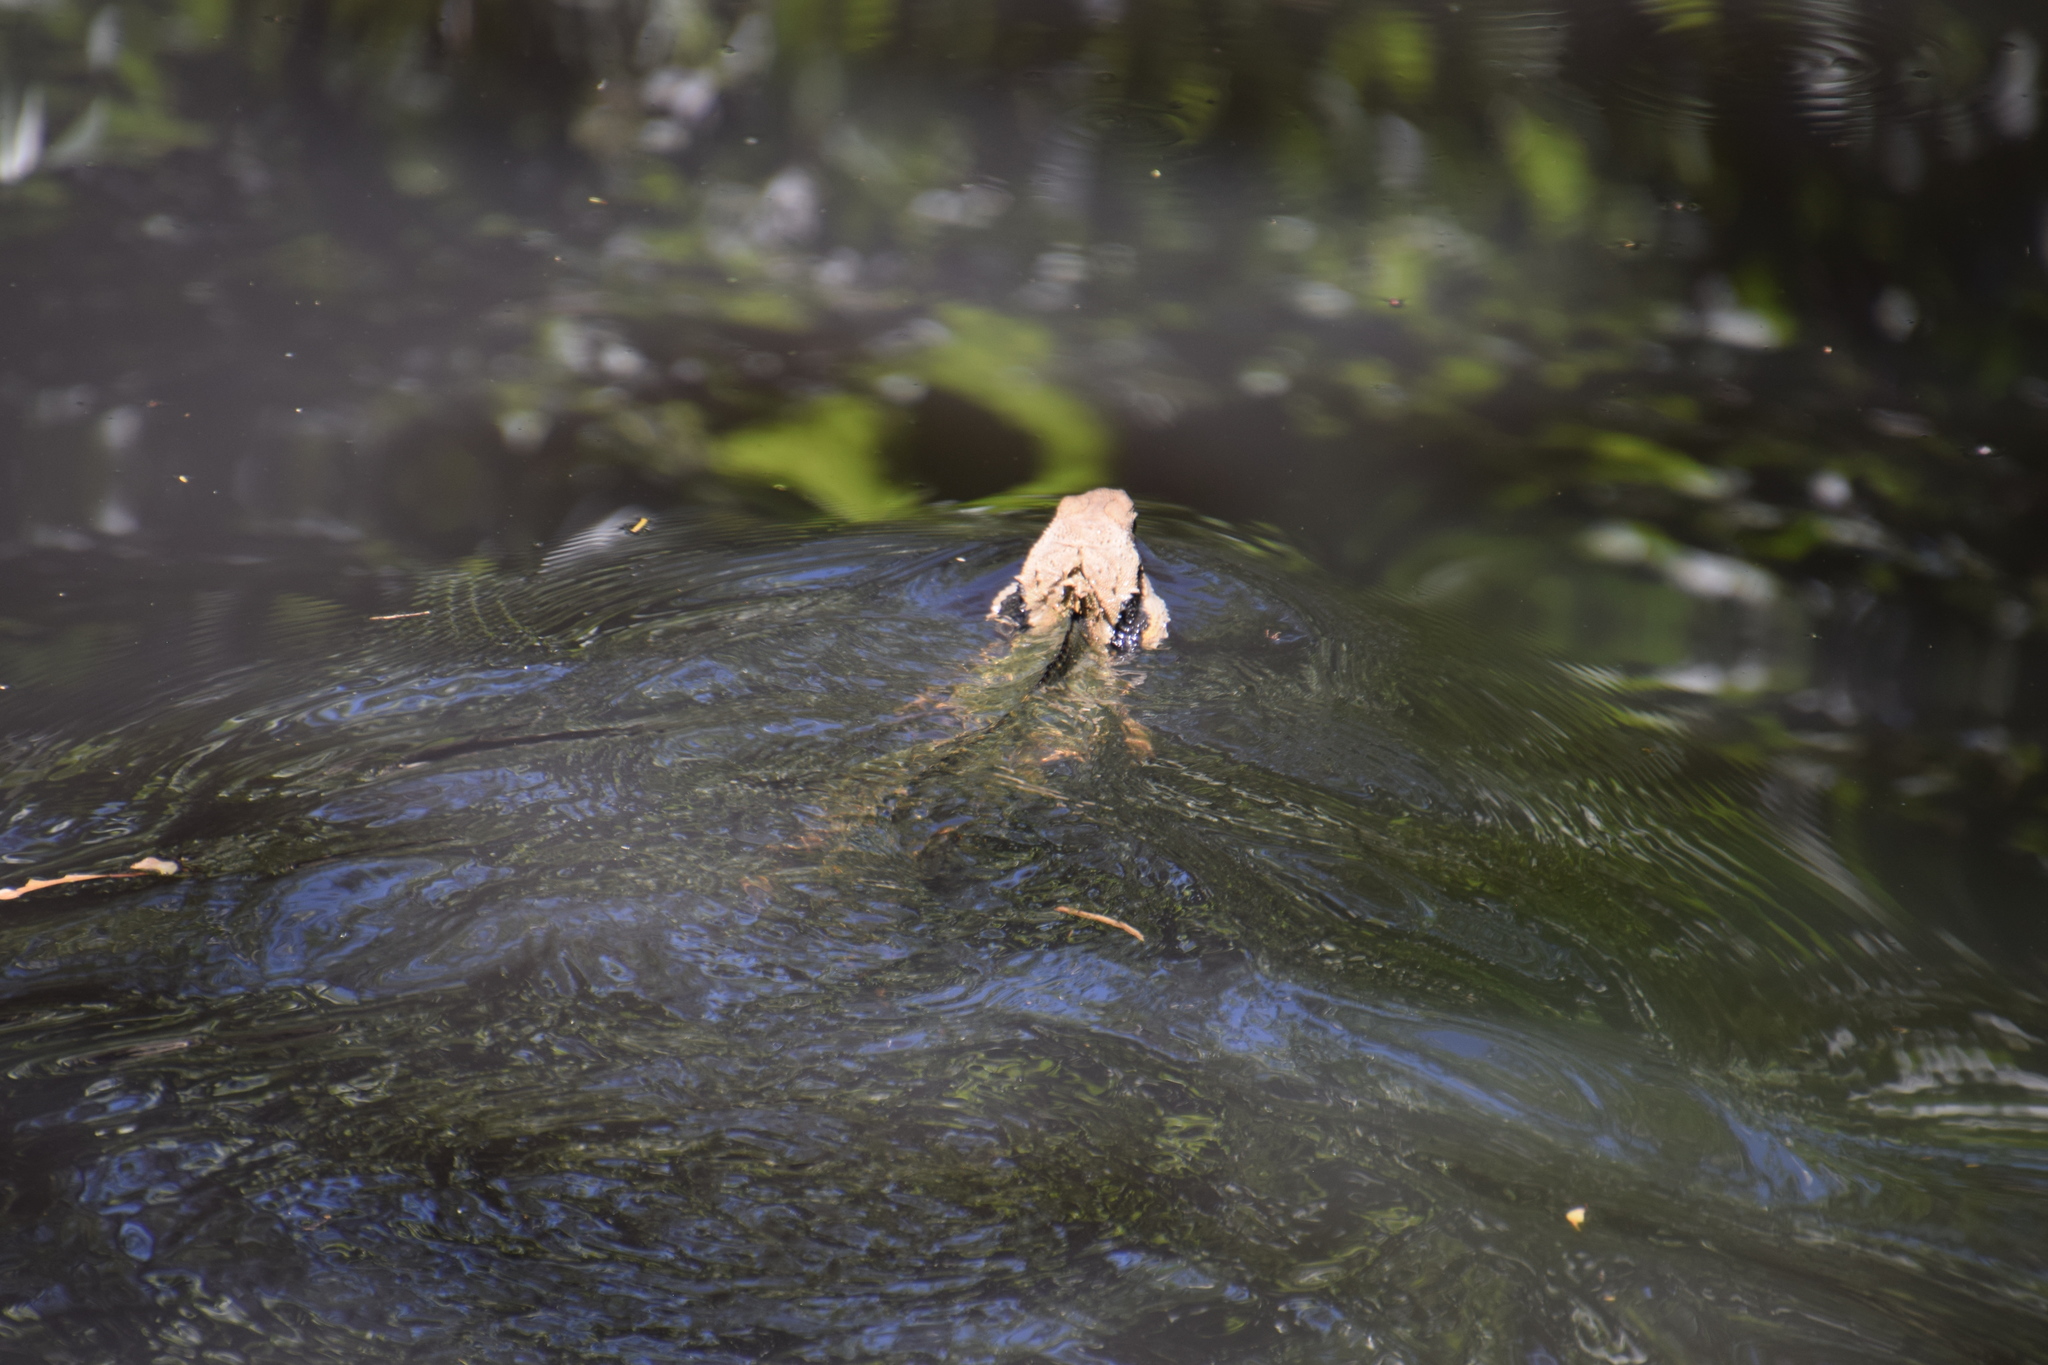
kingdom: Animalia
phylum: Chordata
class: Squamata
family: Agamidae
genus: Intellagama
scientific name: Intellagama lesueurii
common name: Eastern water dragon
